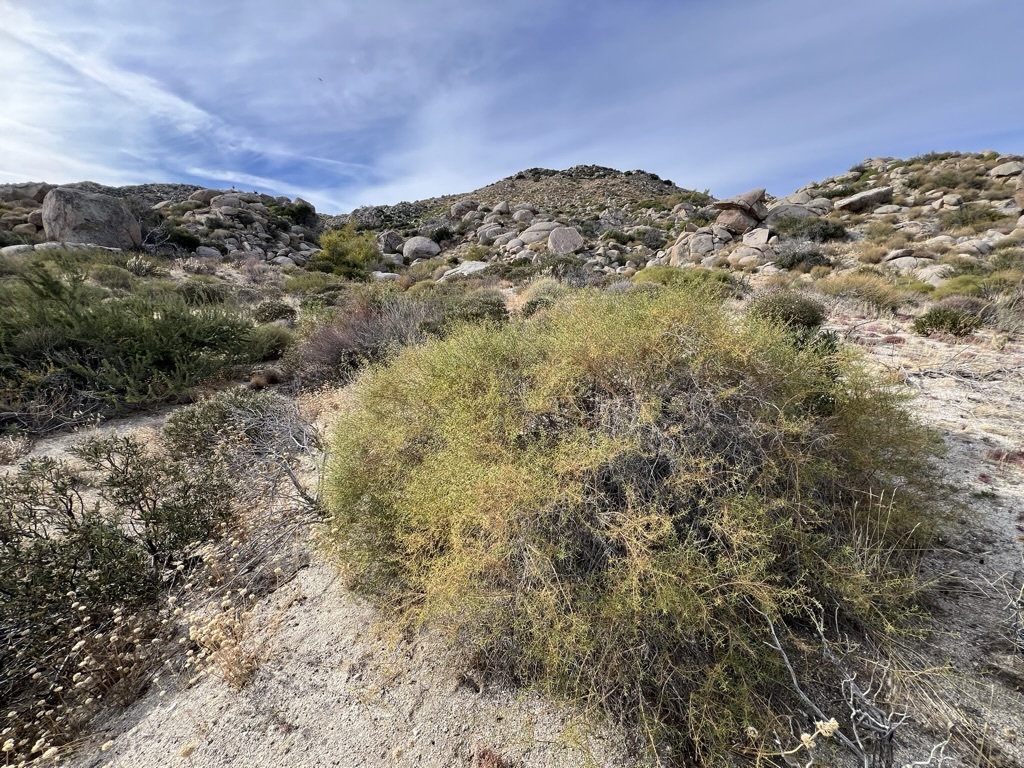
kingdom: Plantae
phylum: Tracheophyta
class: Magnoliopsida
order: Asterales
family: Asteraceae
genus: Ambrosia
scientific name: Ambrosia salsola
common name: Burrobrush
